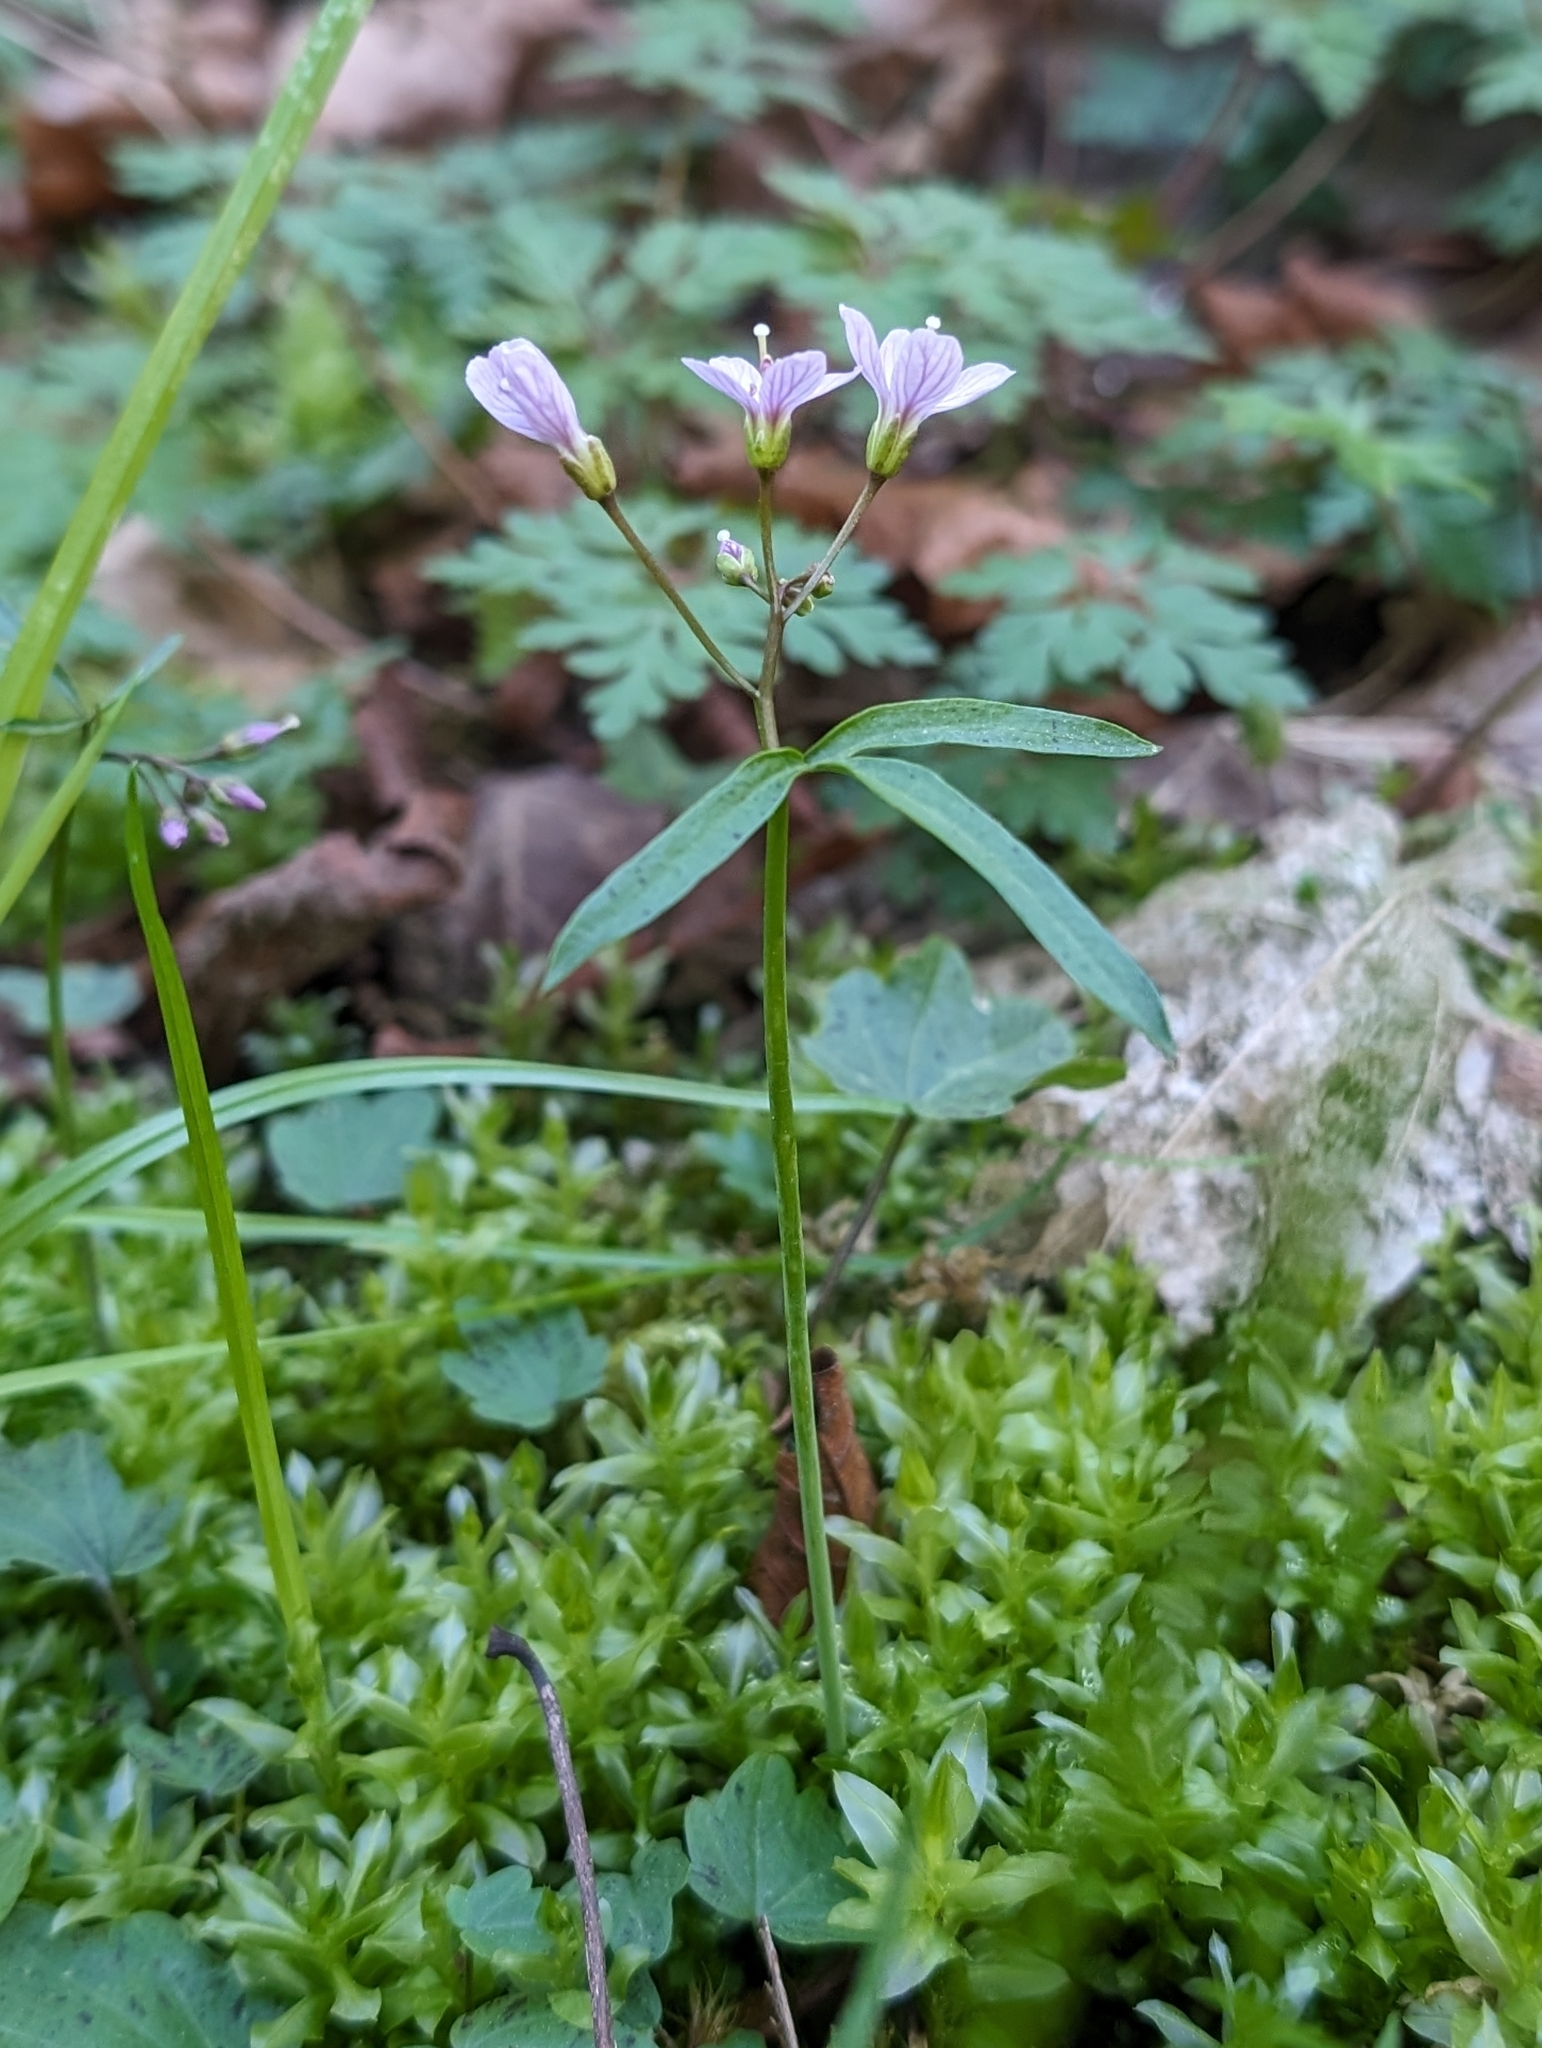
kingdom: Plantae
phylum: Tracheophyta
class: Magnoliopsida
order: Brassicales
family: Brassicaceae
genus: Cardamine
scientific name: Cardamine nuttallii
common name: Nuttall's toothwort
